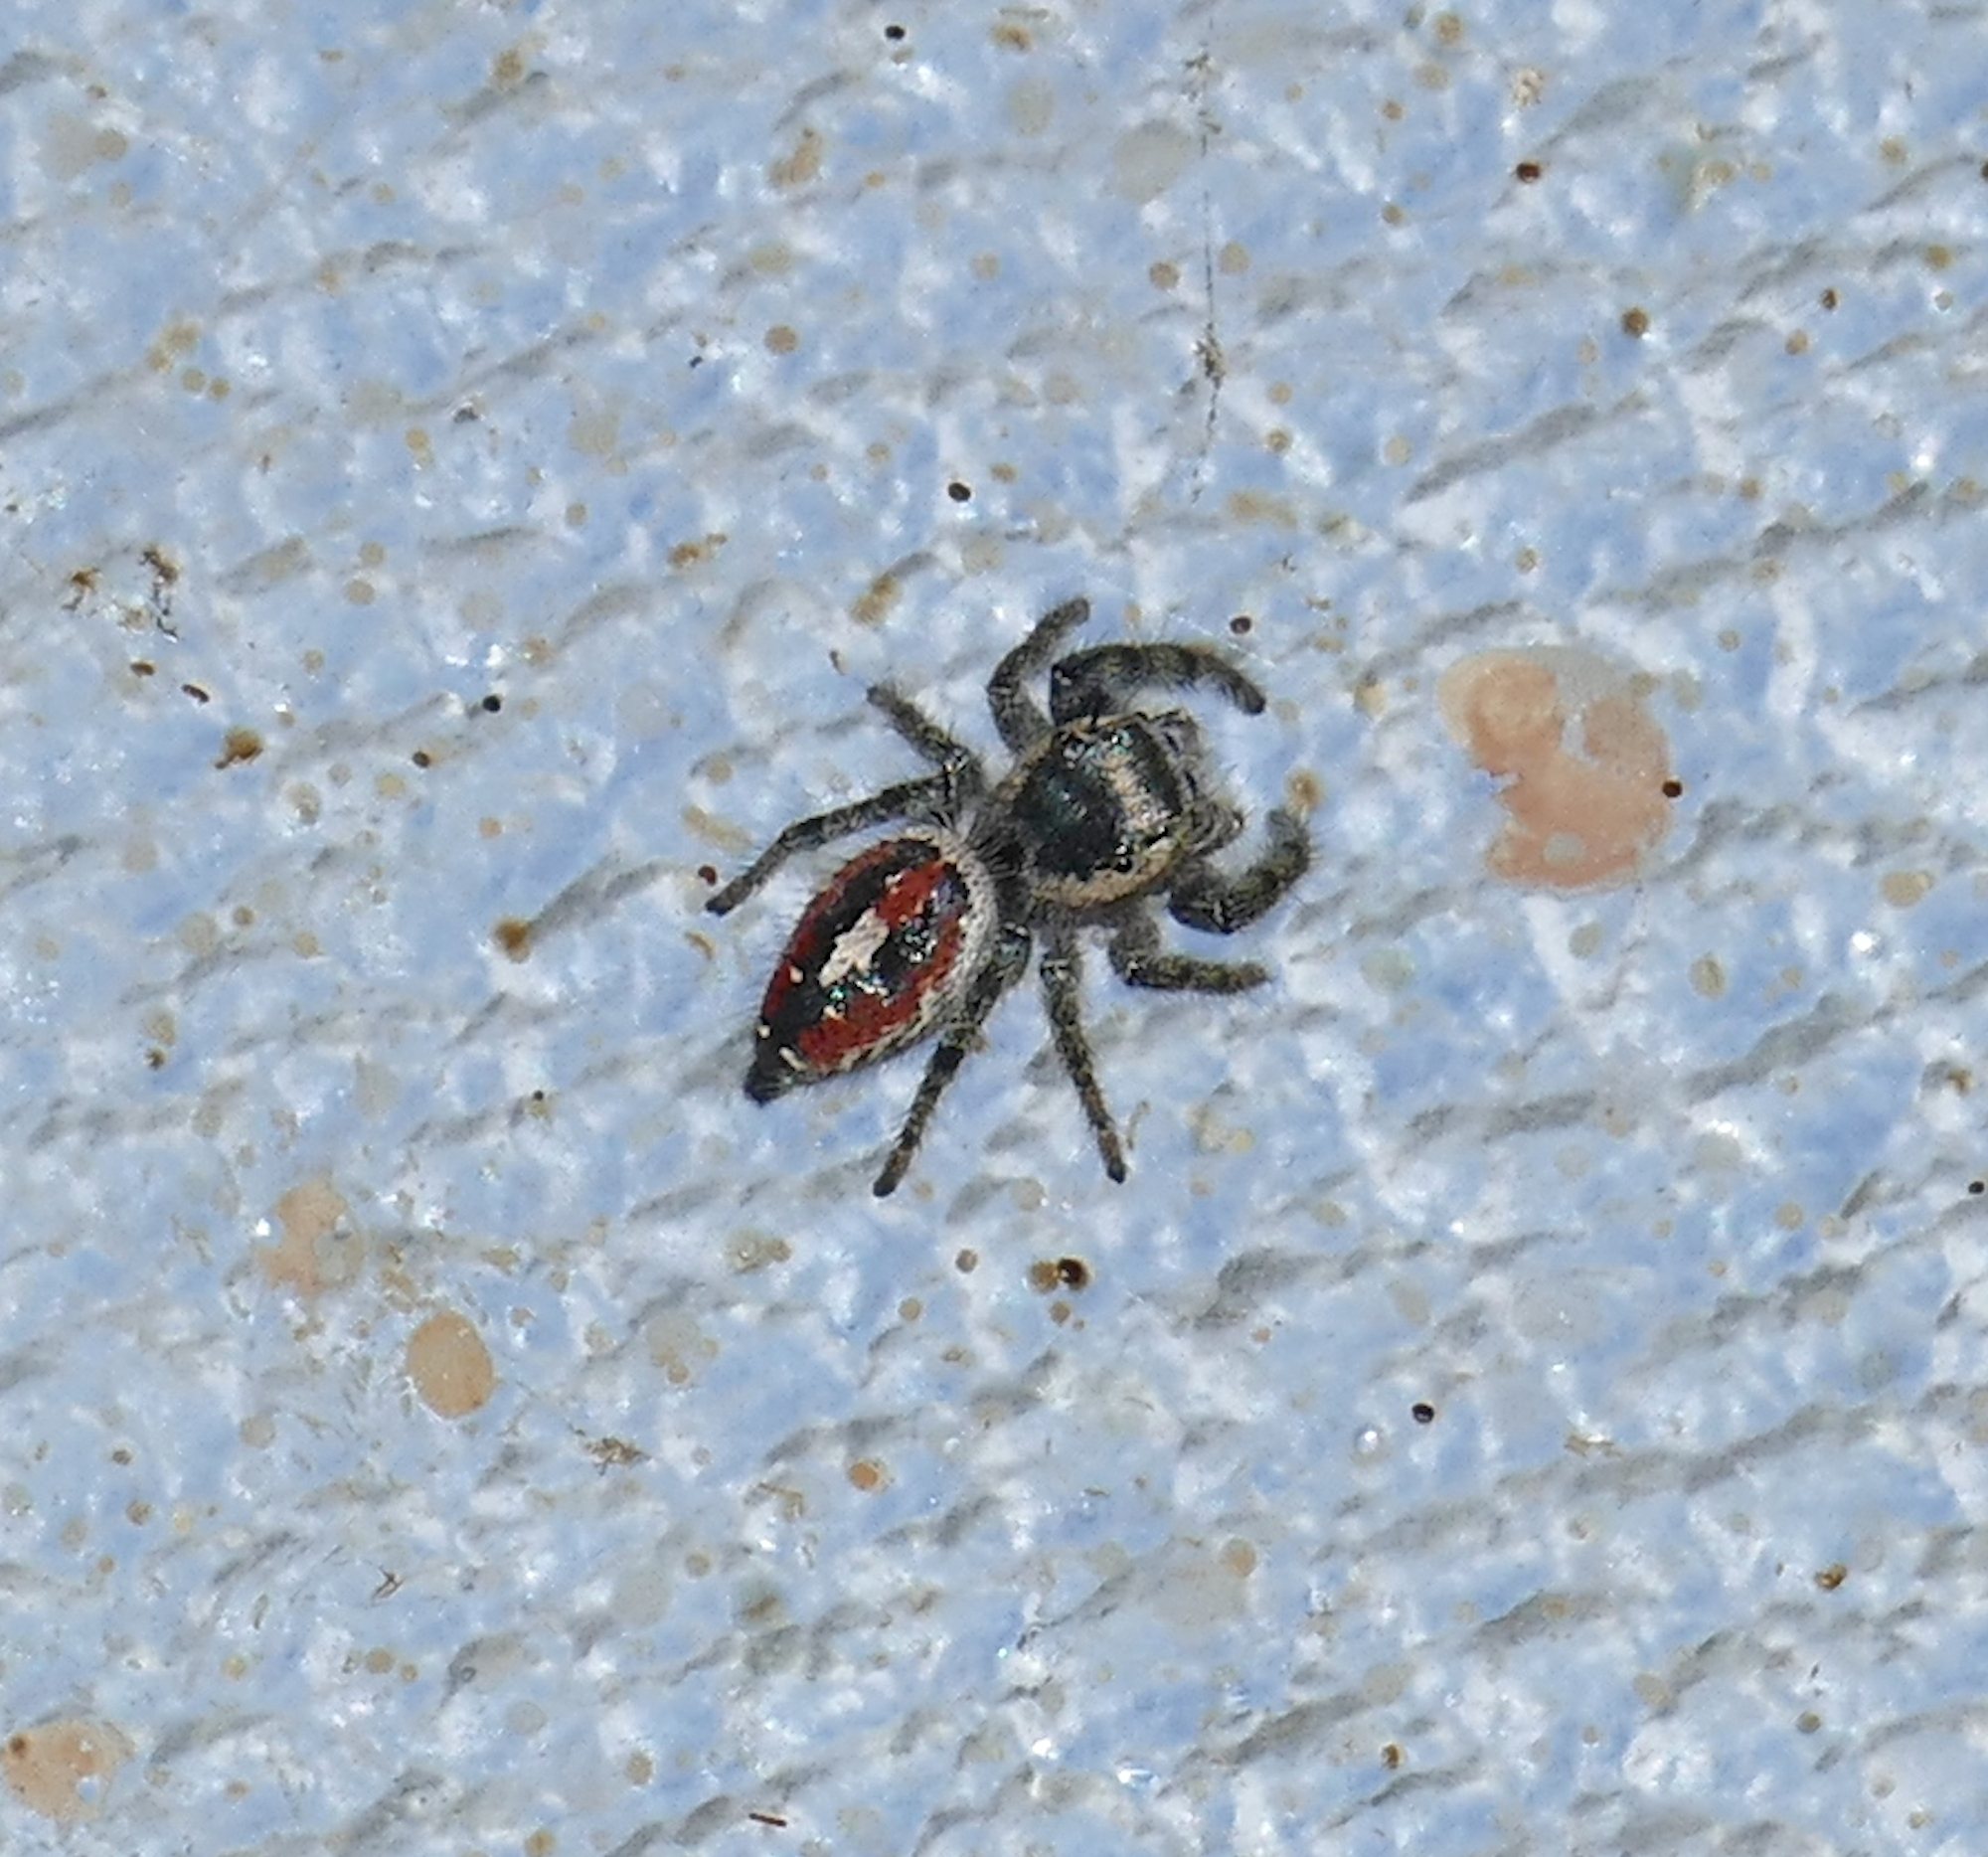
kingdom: Animalia
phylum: Arthropoda
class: Arachnida
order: Araneae
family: Salticidae
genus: Phidippus
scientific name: Phidippus vexans
